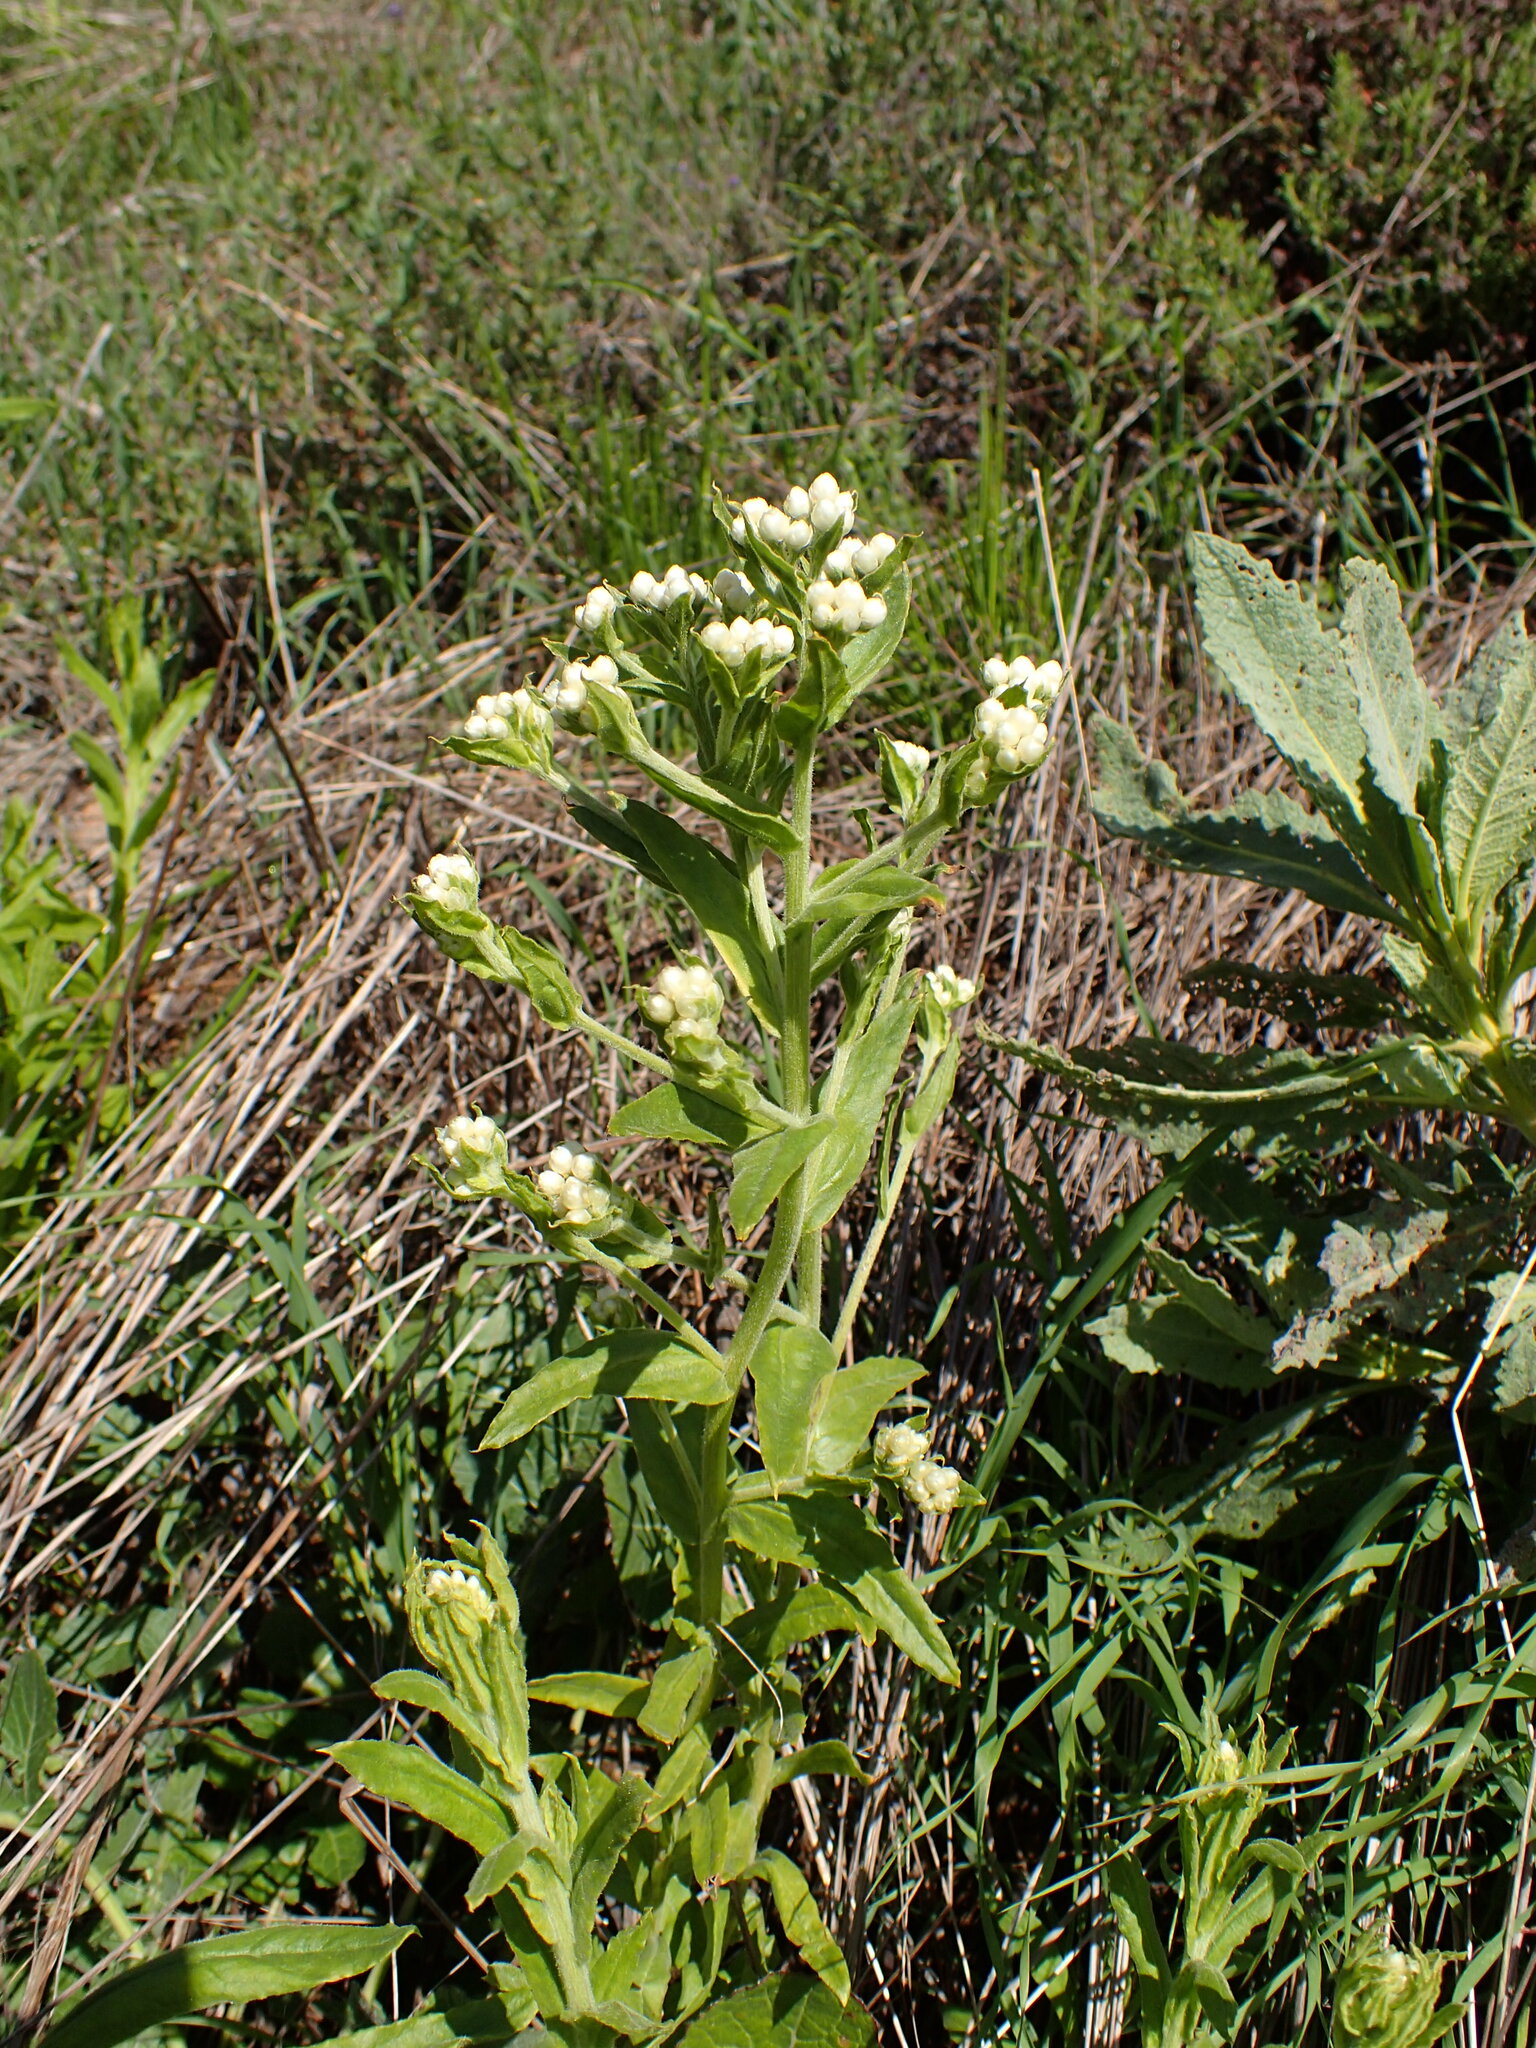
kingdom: Plantae
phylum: Tracheophyta
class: Magnoliopsida
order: Asterales
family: Asteraceae
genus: Pseudognaphalium
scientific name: Pseudognaphalium californicum
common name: California rabbit-tobacco
